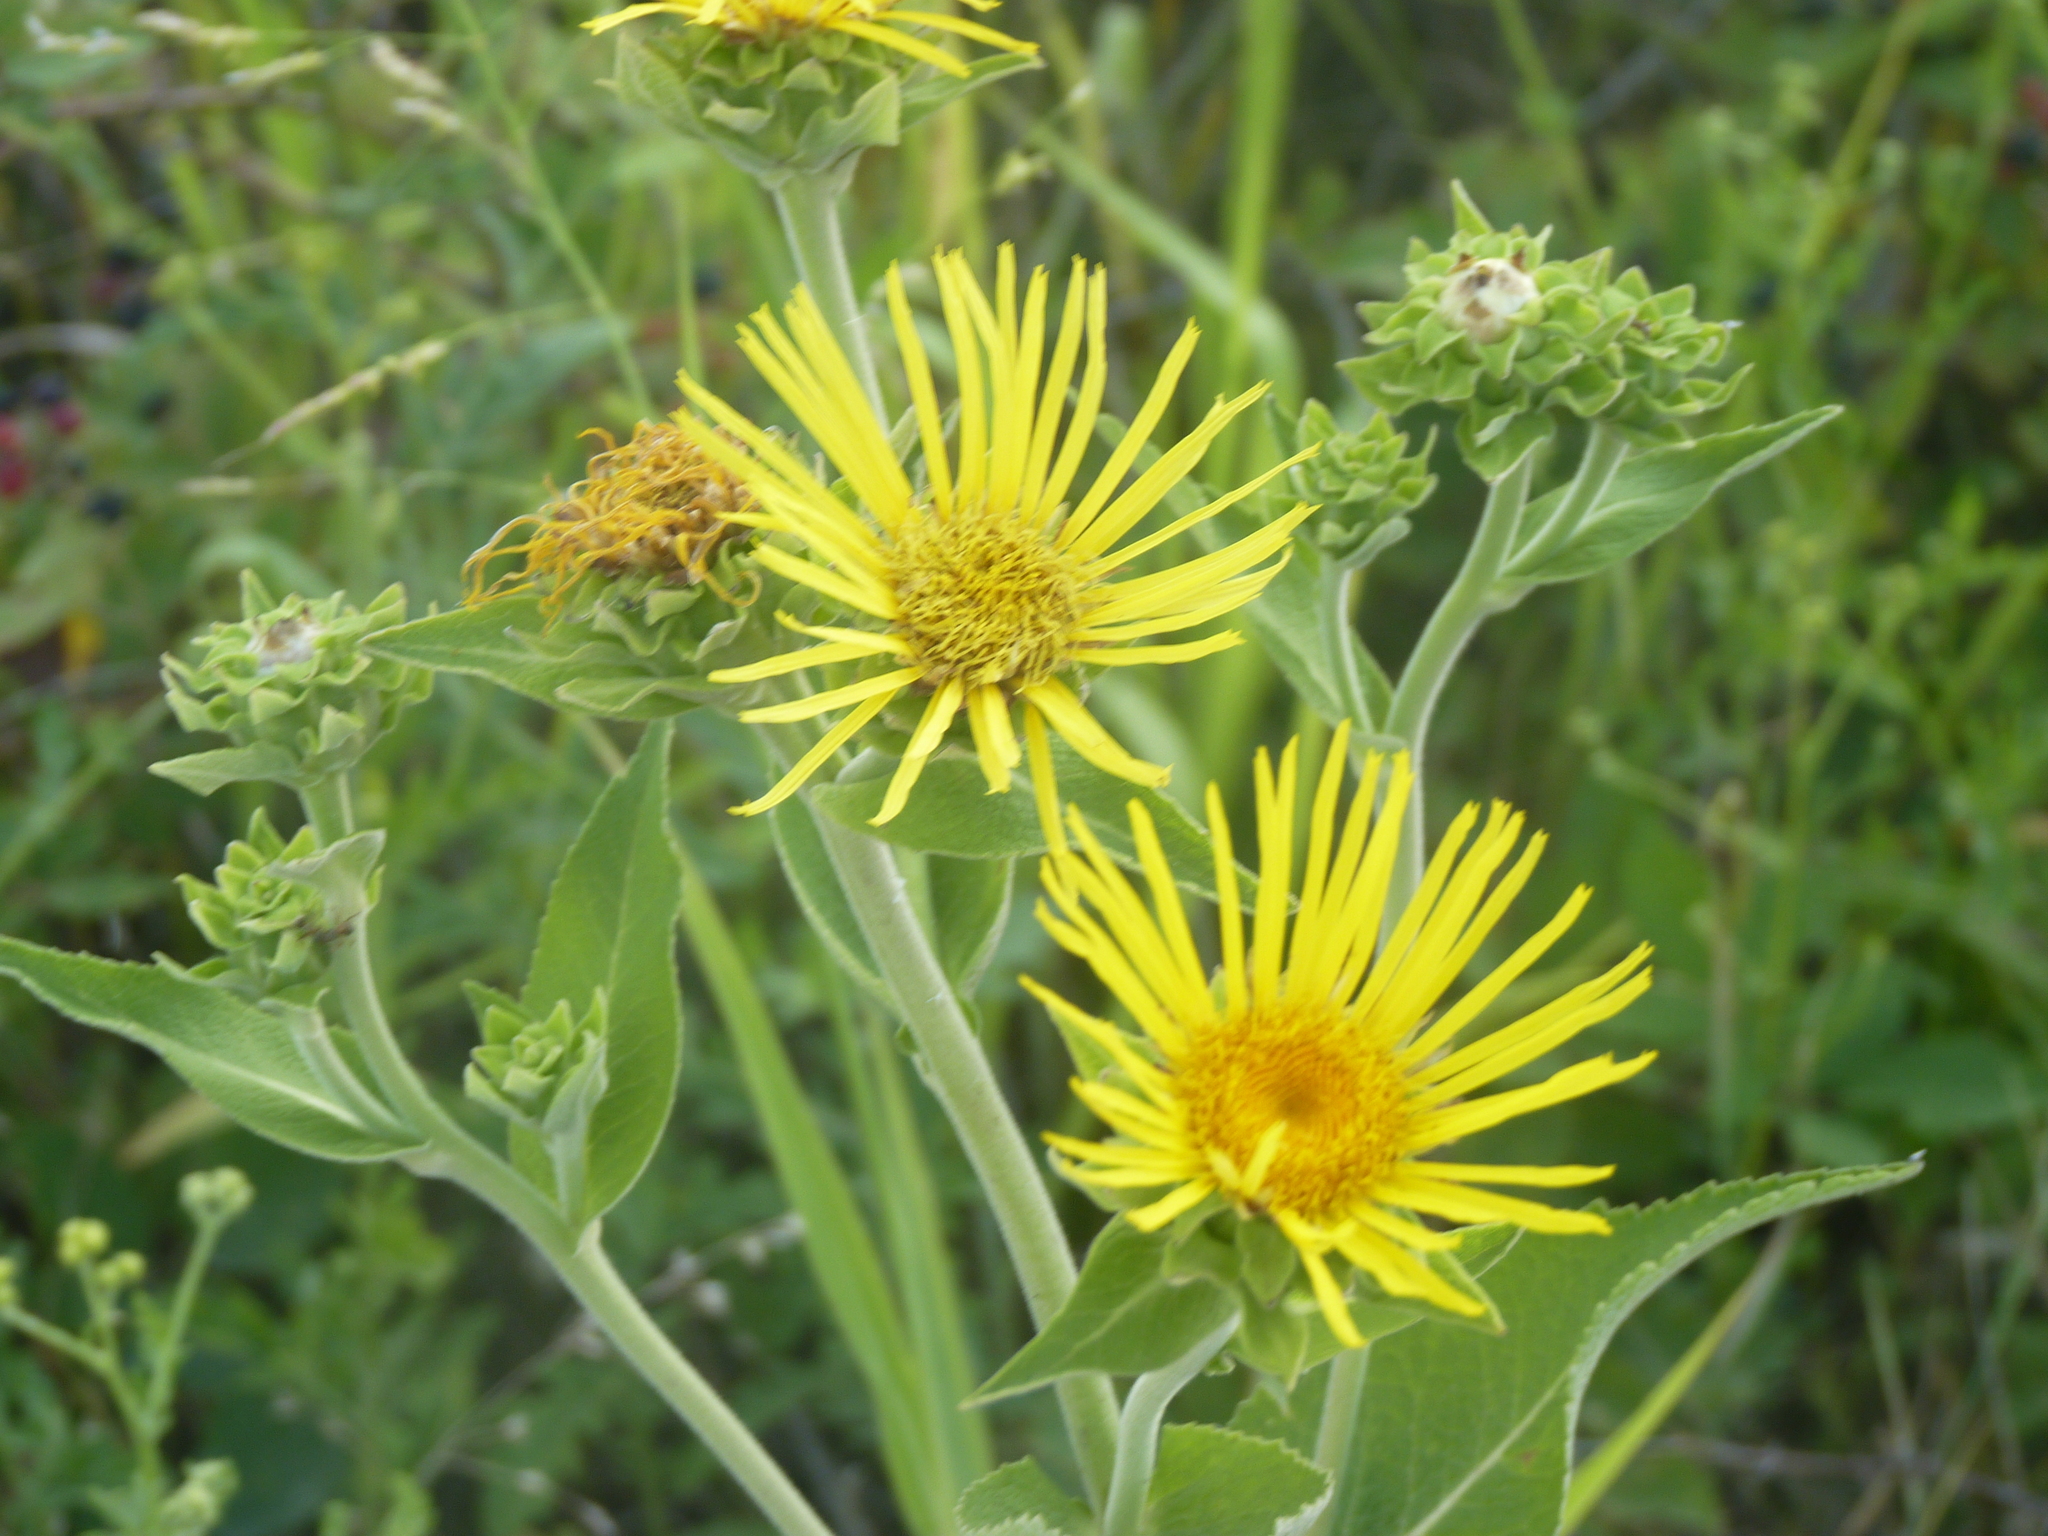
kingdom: Plantae
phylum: Tracheophyta
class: Magnoliopsida
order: Asterales
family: Asteraceae
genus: Inula
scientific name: Inula helenium
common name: Elecampane
